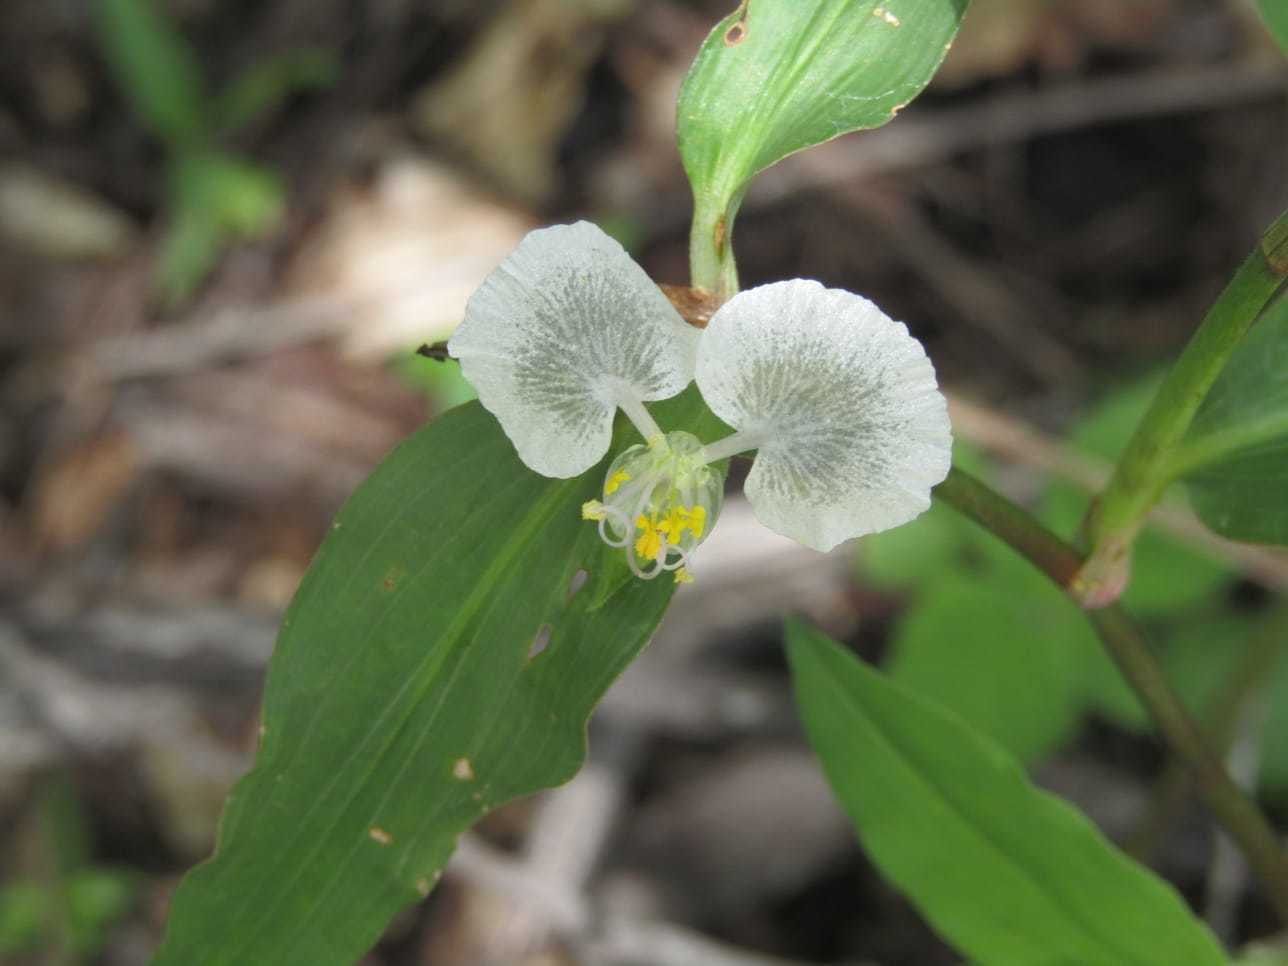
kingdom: Plantae
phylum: Tracheophyta
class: Liliopsida
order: Commelinales
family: Commelinaceae
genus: Commelina
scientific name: Commelina erecta
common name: Blousel blommetjie
